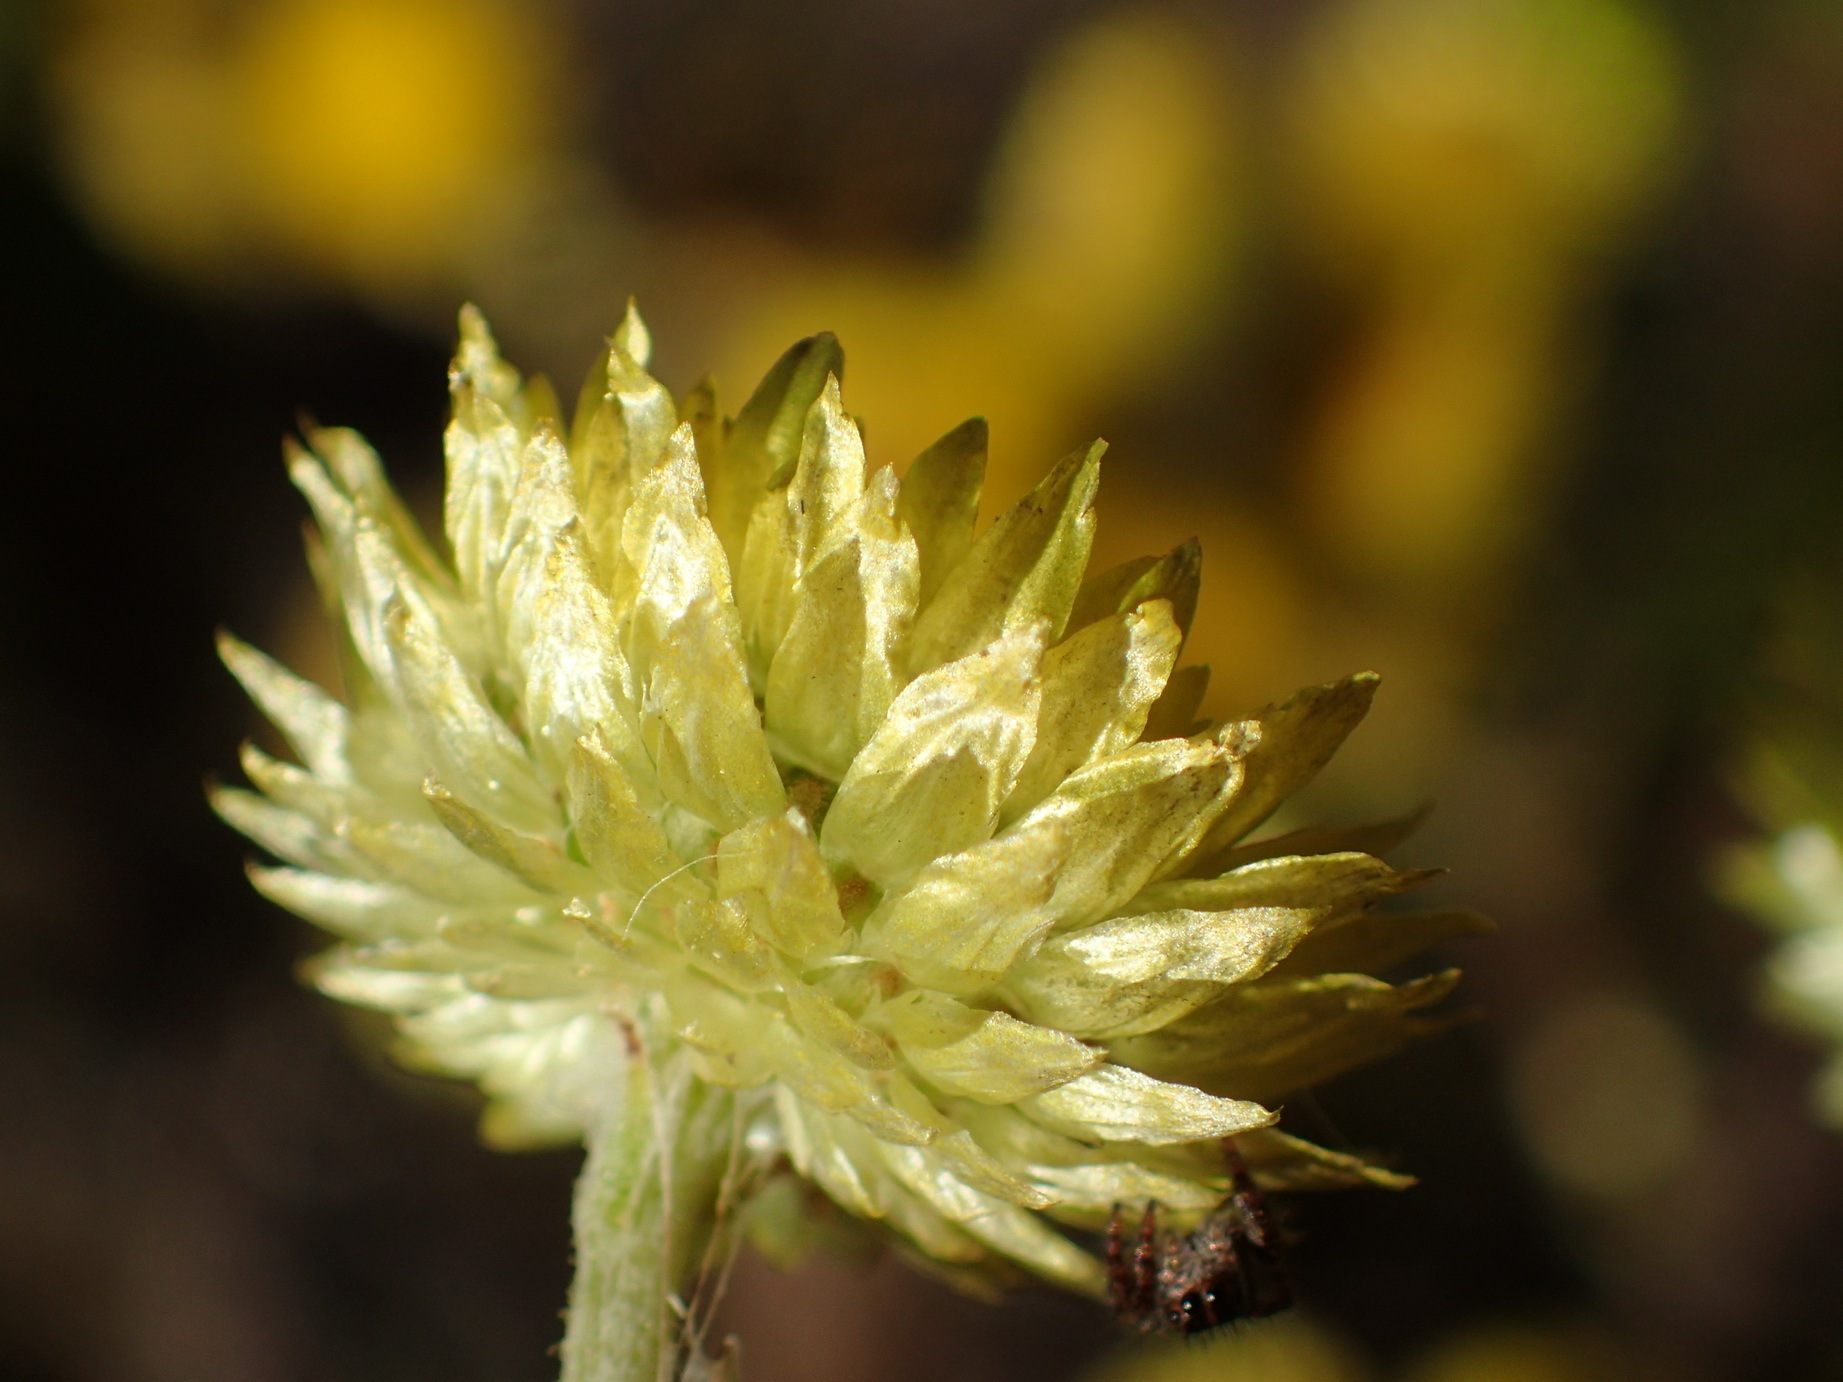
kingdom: Plantae
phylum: Tracheophyta
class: Magnoliopsida
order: Asterales
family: Asteraceae
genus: Helichrysum
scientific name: Helichrysum foetidum
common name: Stinking everlasting
